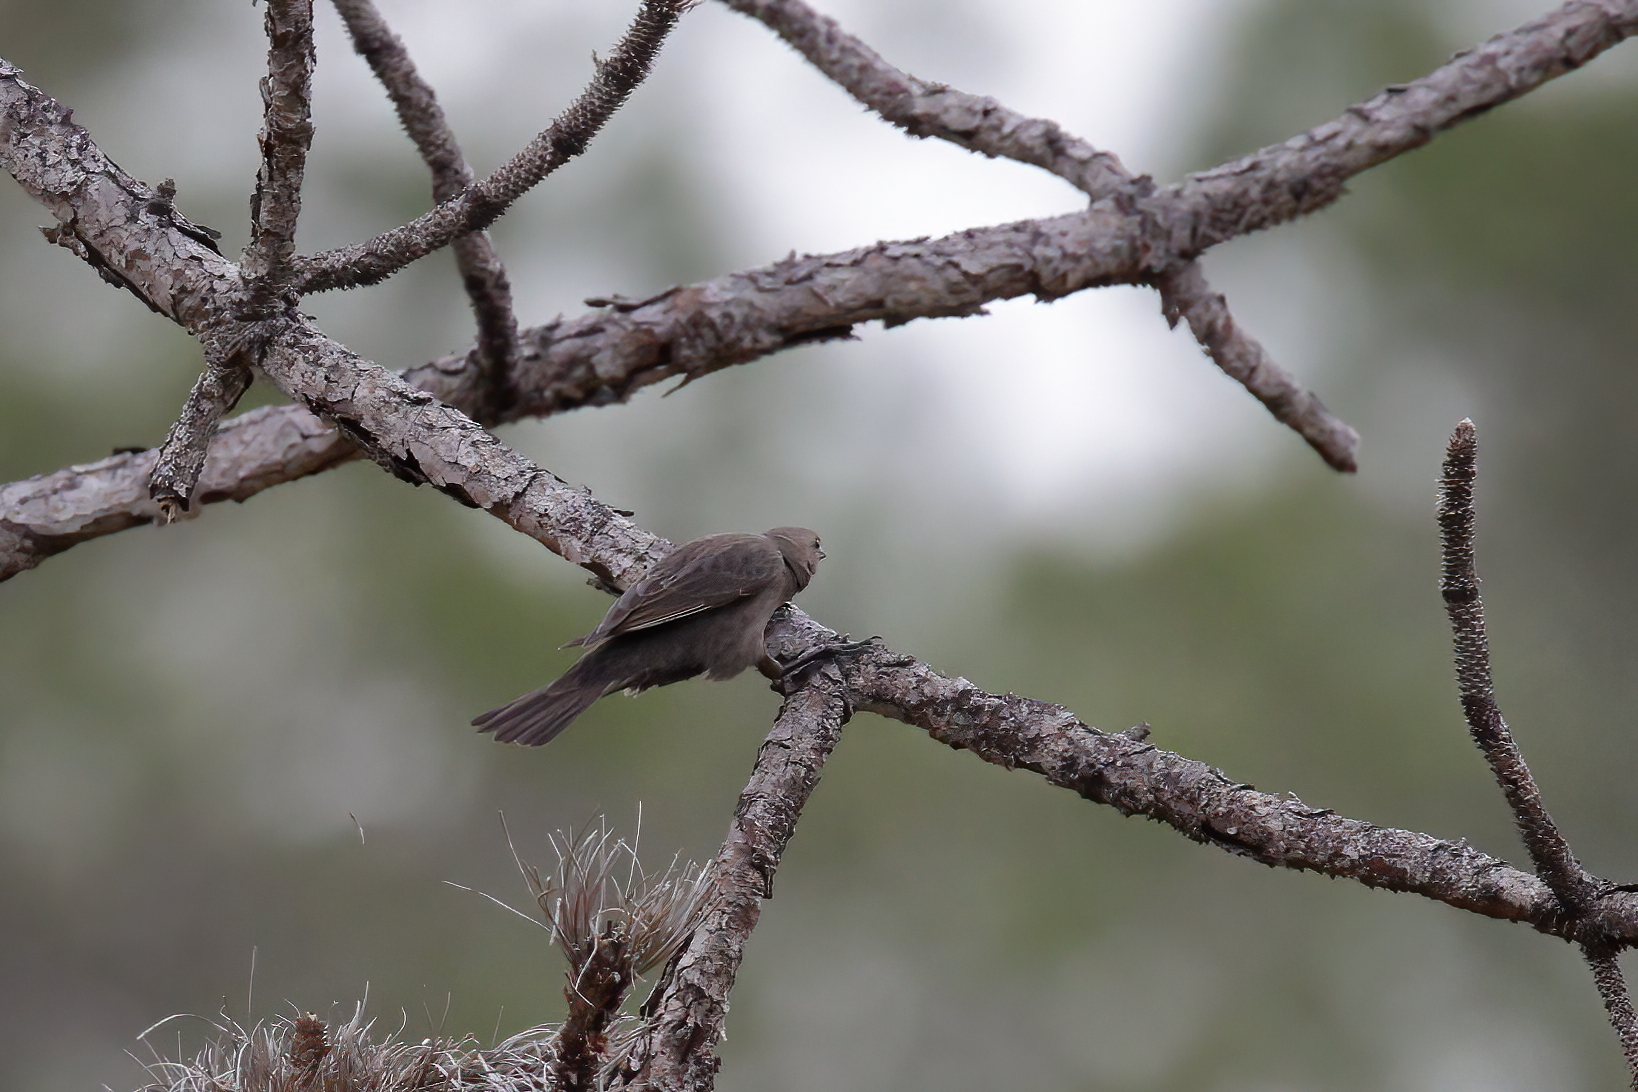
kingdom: Animalia
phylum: Chordata
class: Aves
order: Passeriformes
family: Icteridae
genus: Molothrus
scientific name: Molothrus ater
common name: Brown-headed cowbird
